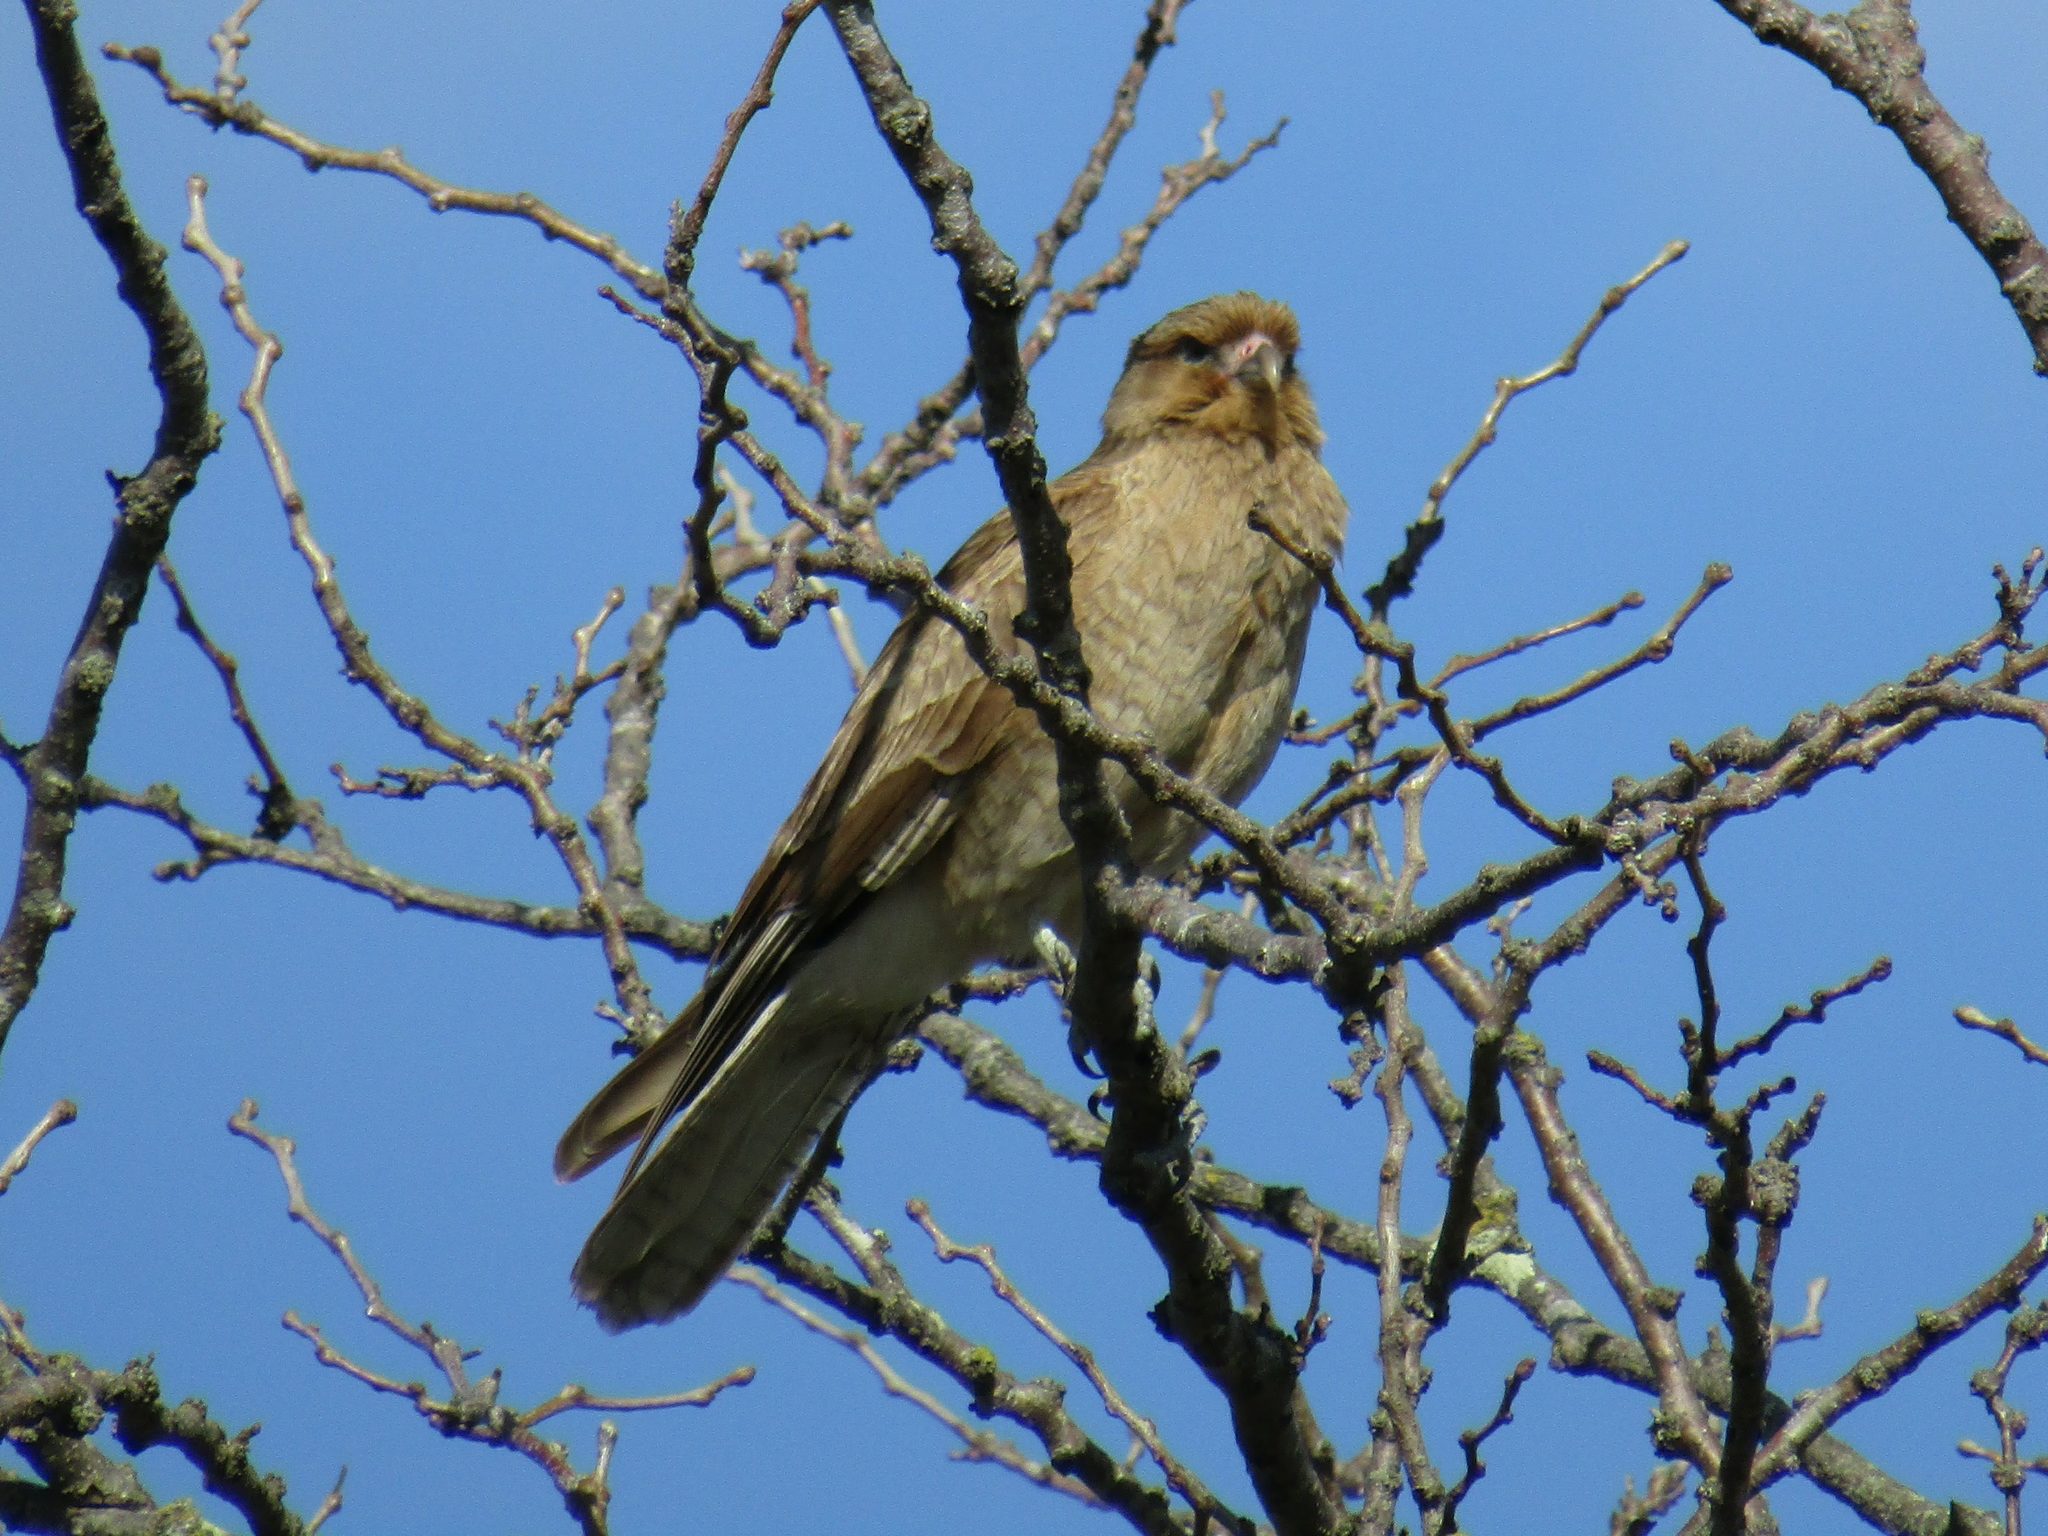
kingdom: Animalia
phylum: Chordata
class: Aves
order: Falconiformes
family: Falconidae
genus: Daptrius
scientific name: Daptrius
